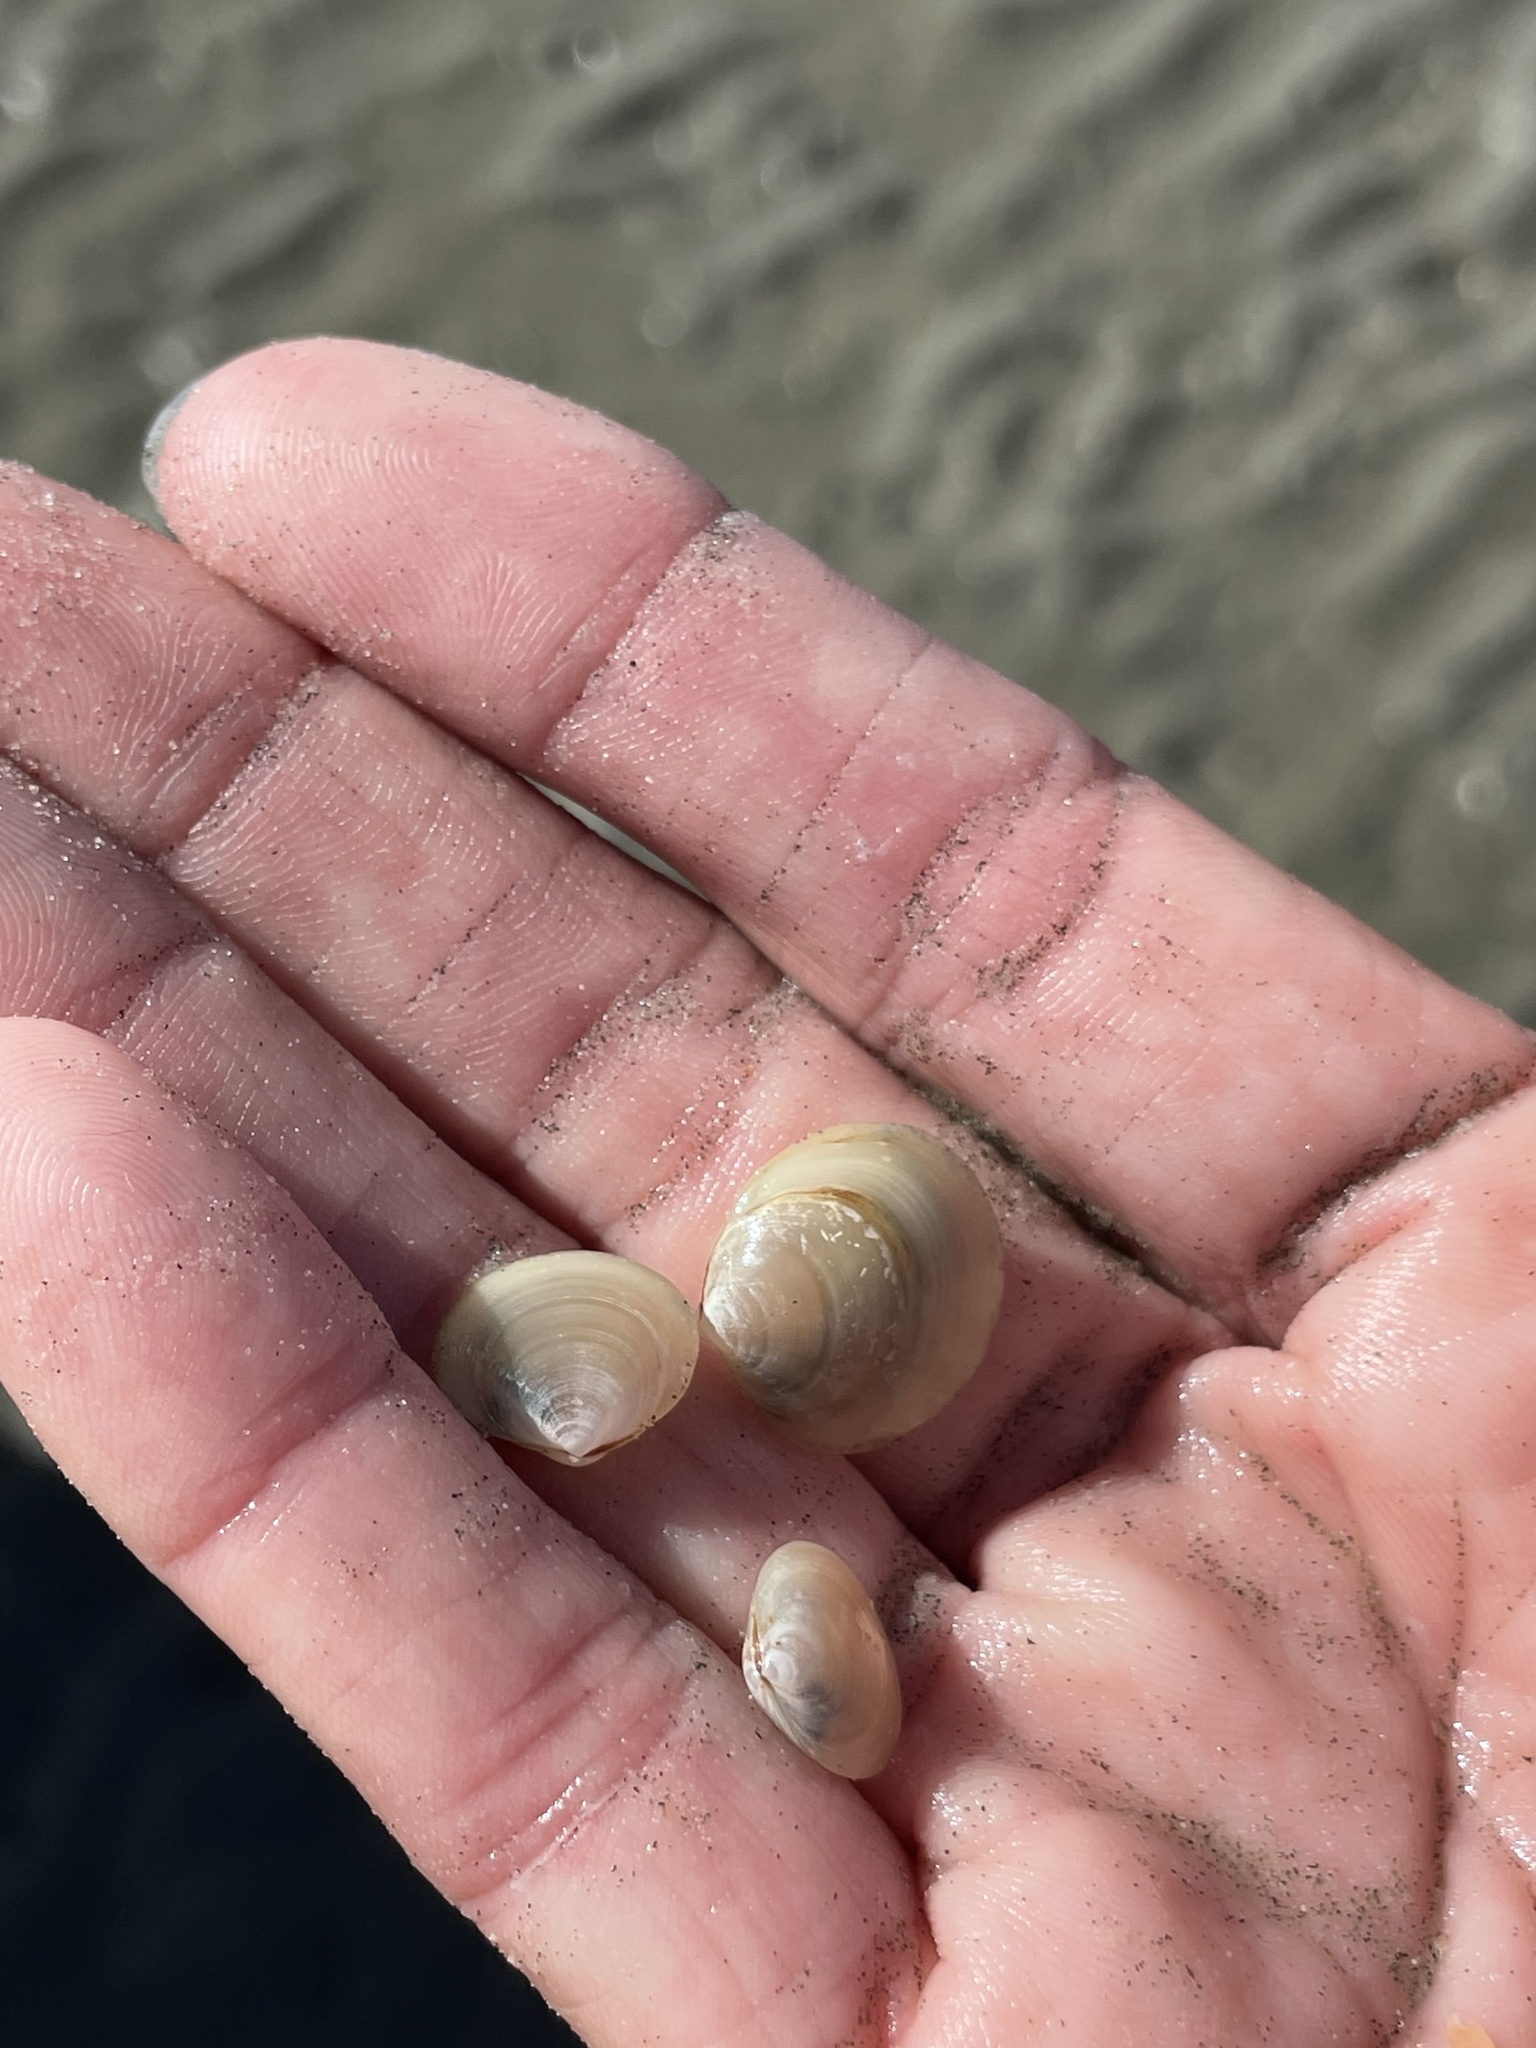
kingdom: Animalia
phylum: Mollusca
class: Bivalvia
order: Venerida
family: Ungulinidae
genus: Felaniella
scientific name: Felaniella sericata
